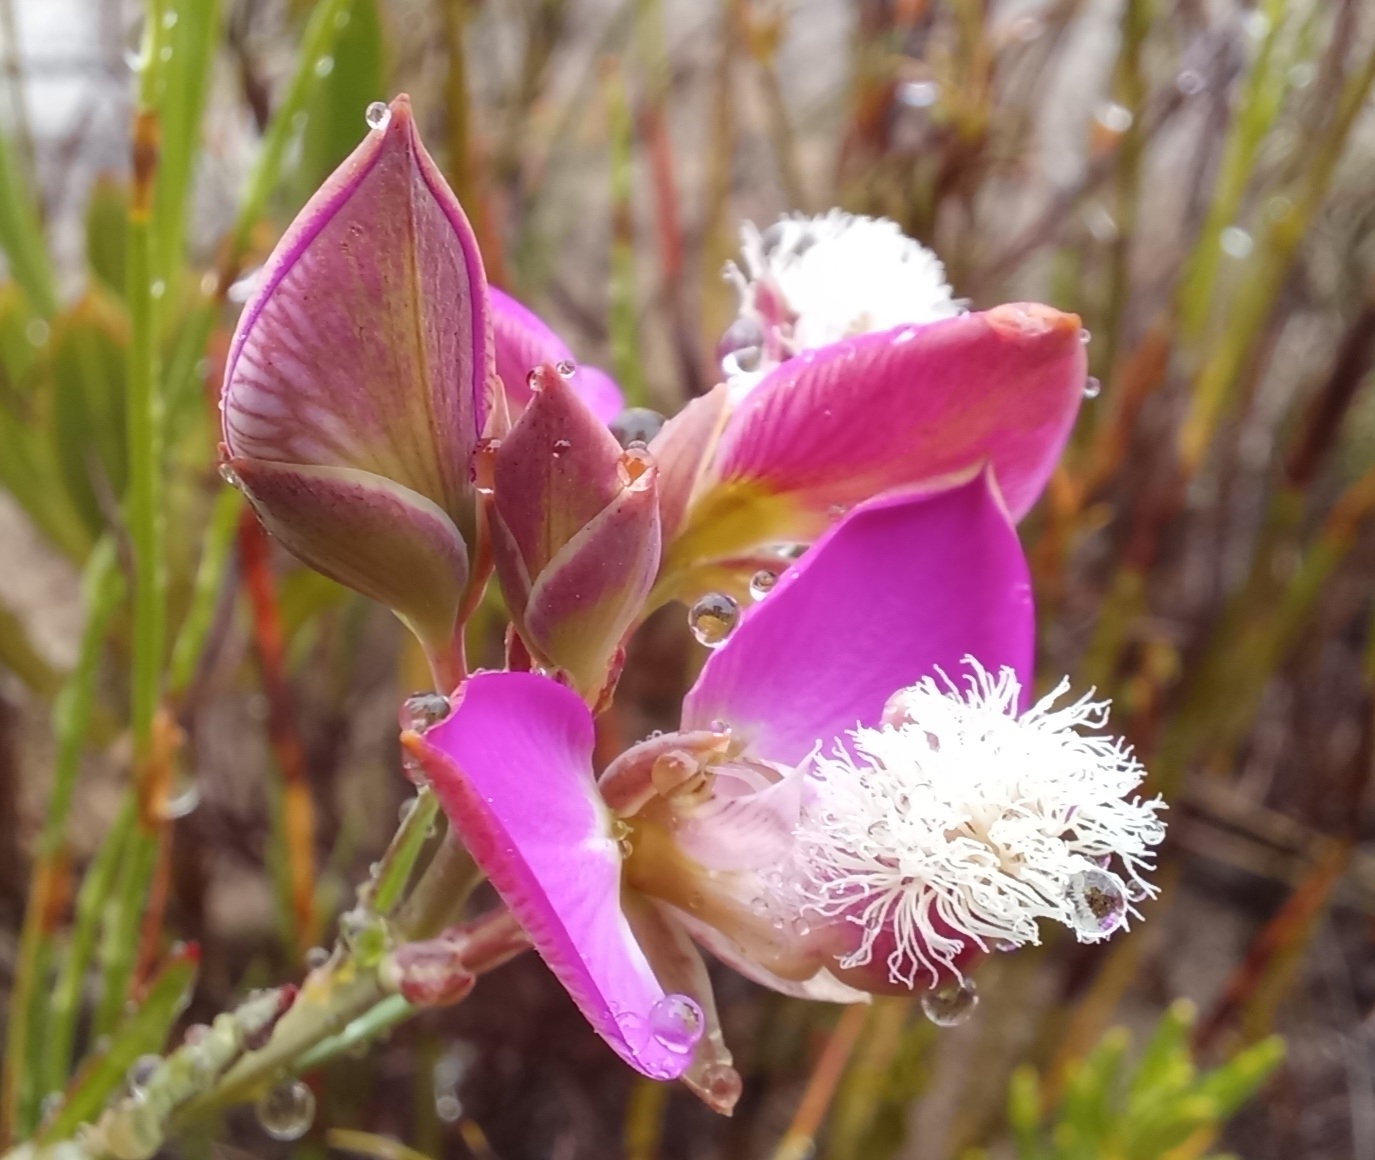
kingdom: Plantae
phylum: Tracheophyta
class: Magnoliopsida
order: Fabales
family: Polygalaceae
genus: Polygala
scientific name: Polygala bracteolata
